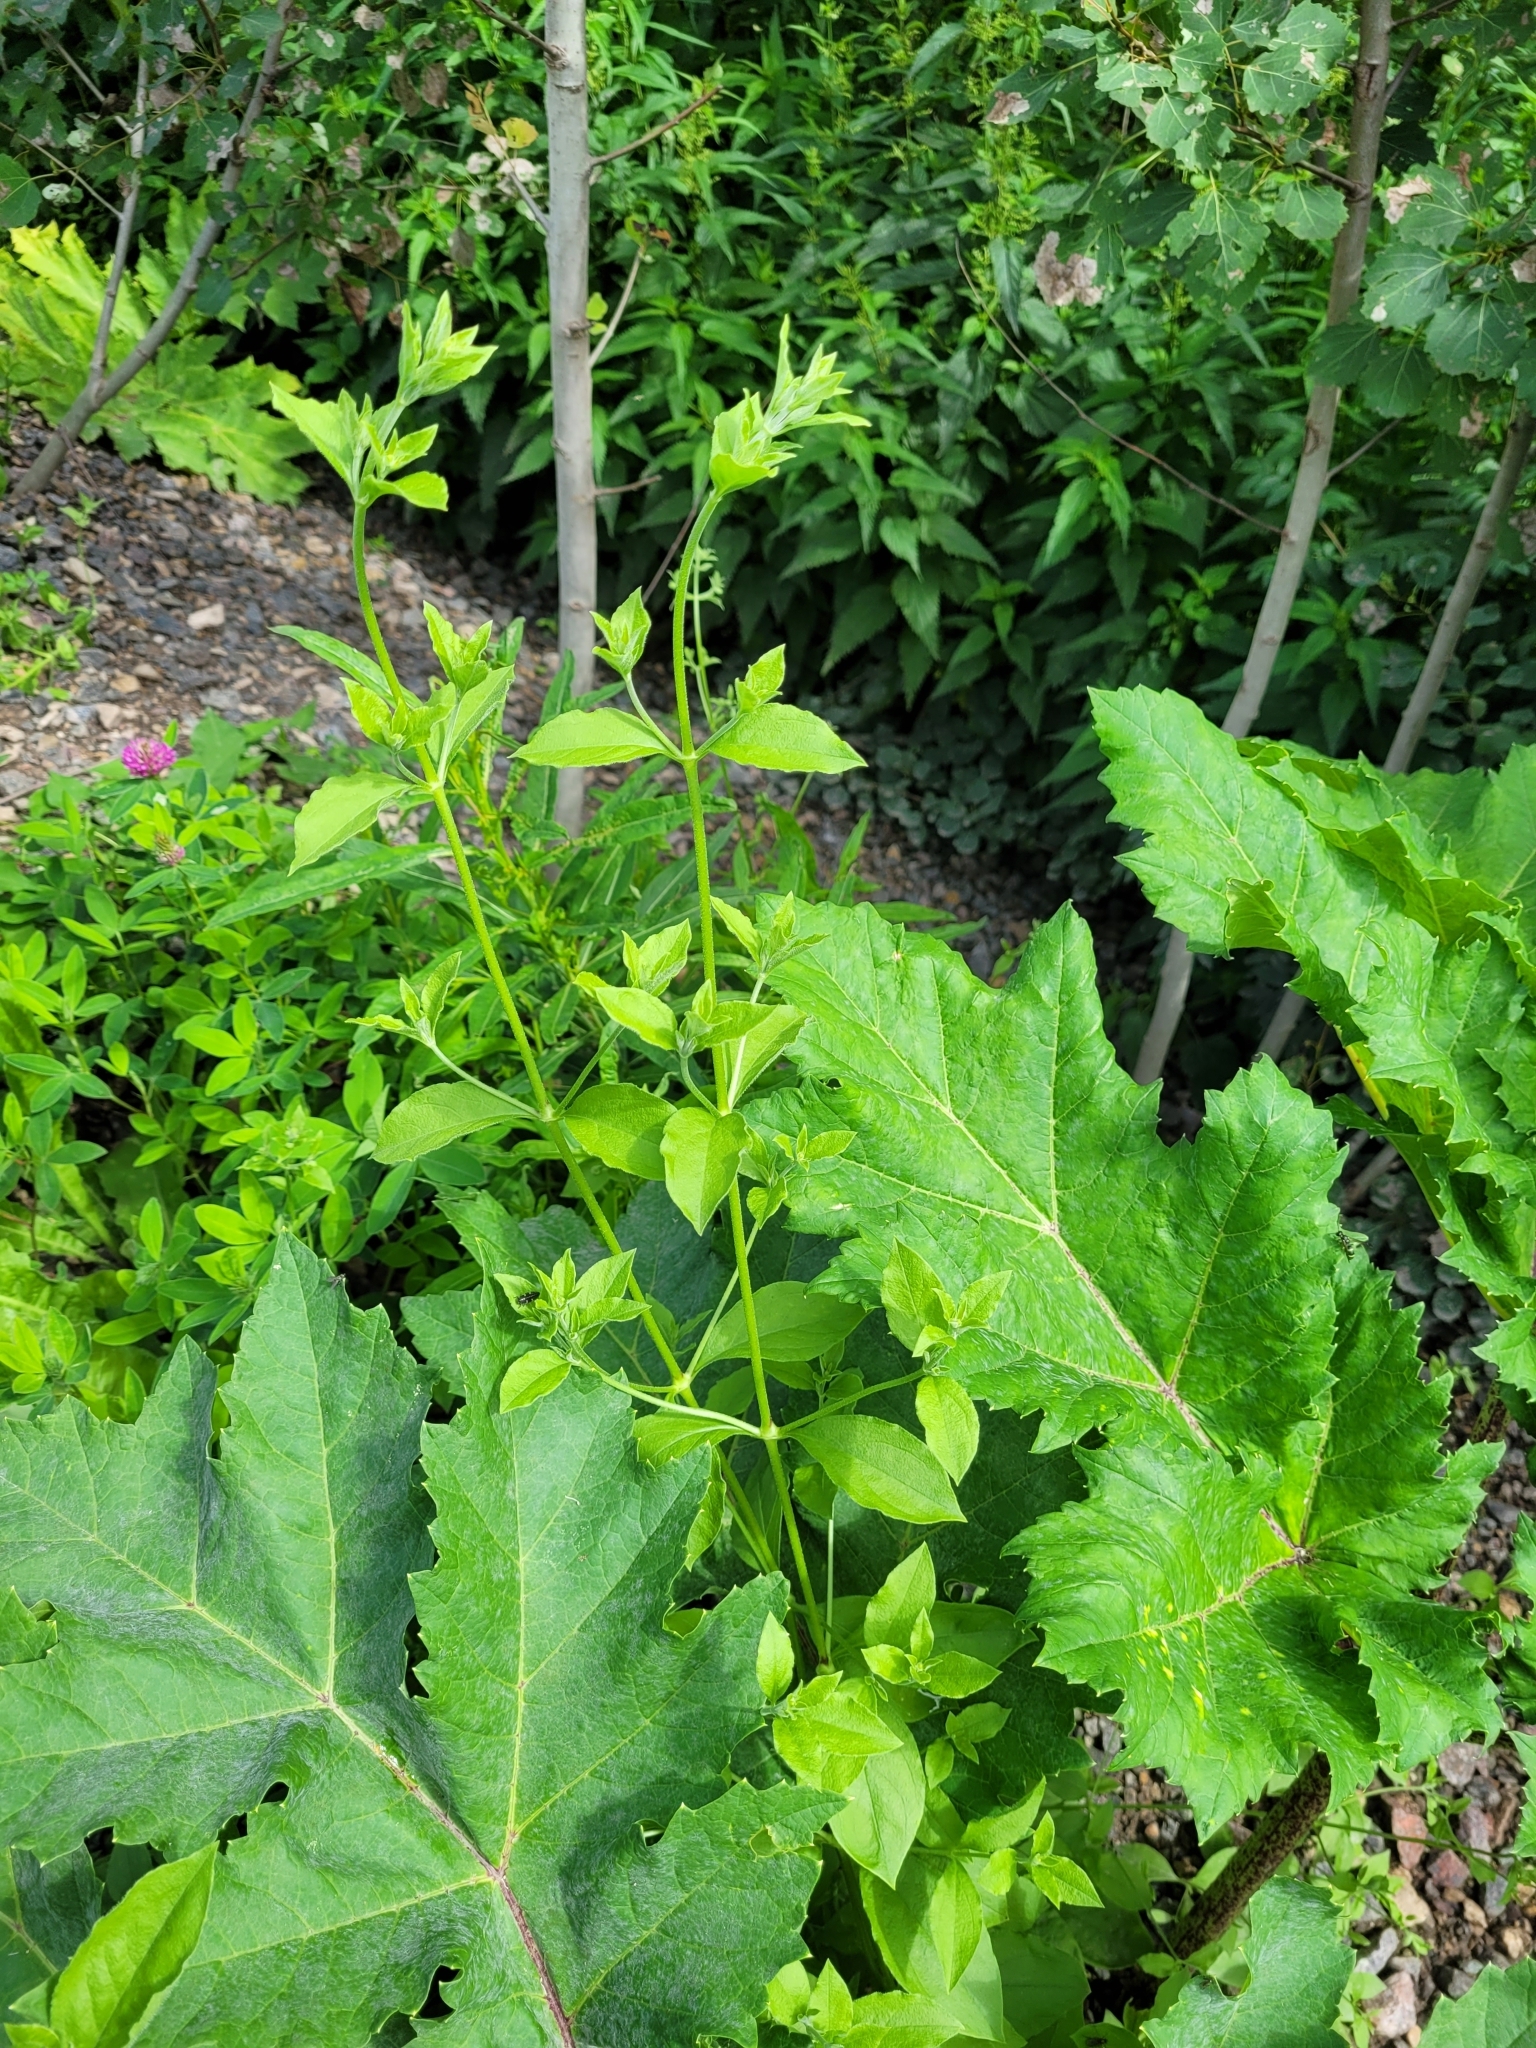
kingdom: Plantae
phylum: Tracheophyta
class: Magnoliopsida
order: Caryophyllales
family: Caryophyllaceae
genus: Silene
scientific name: Silene baccifera
